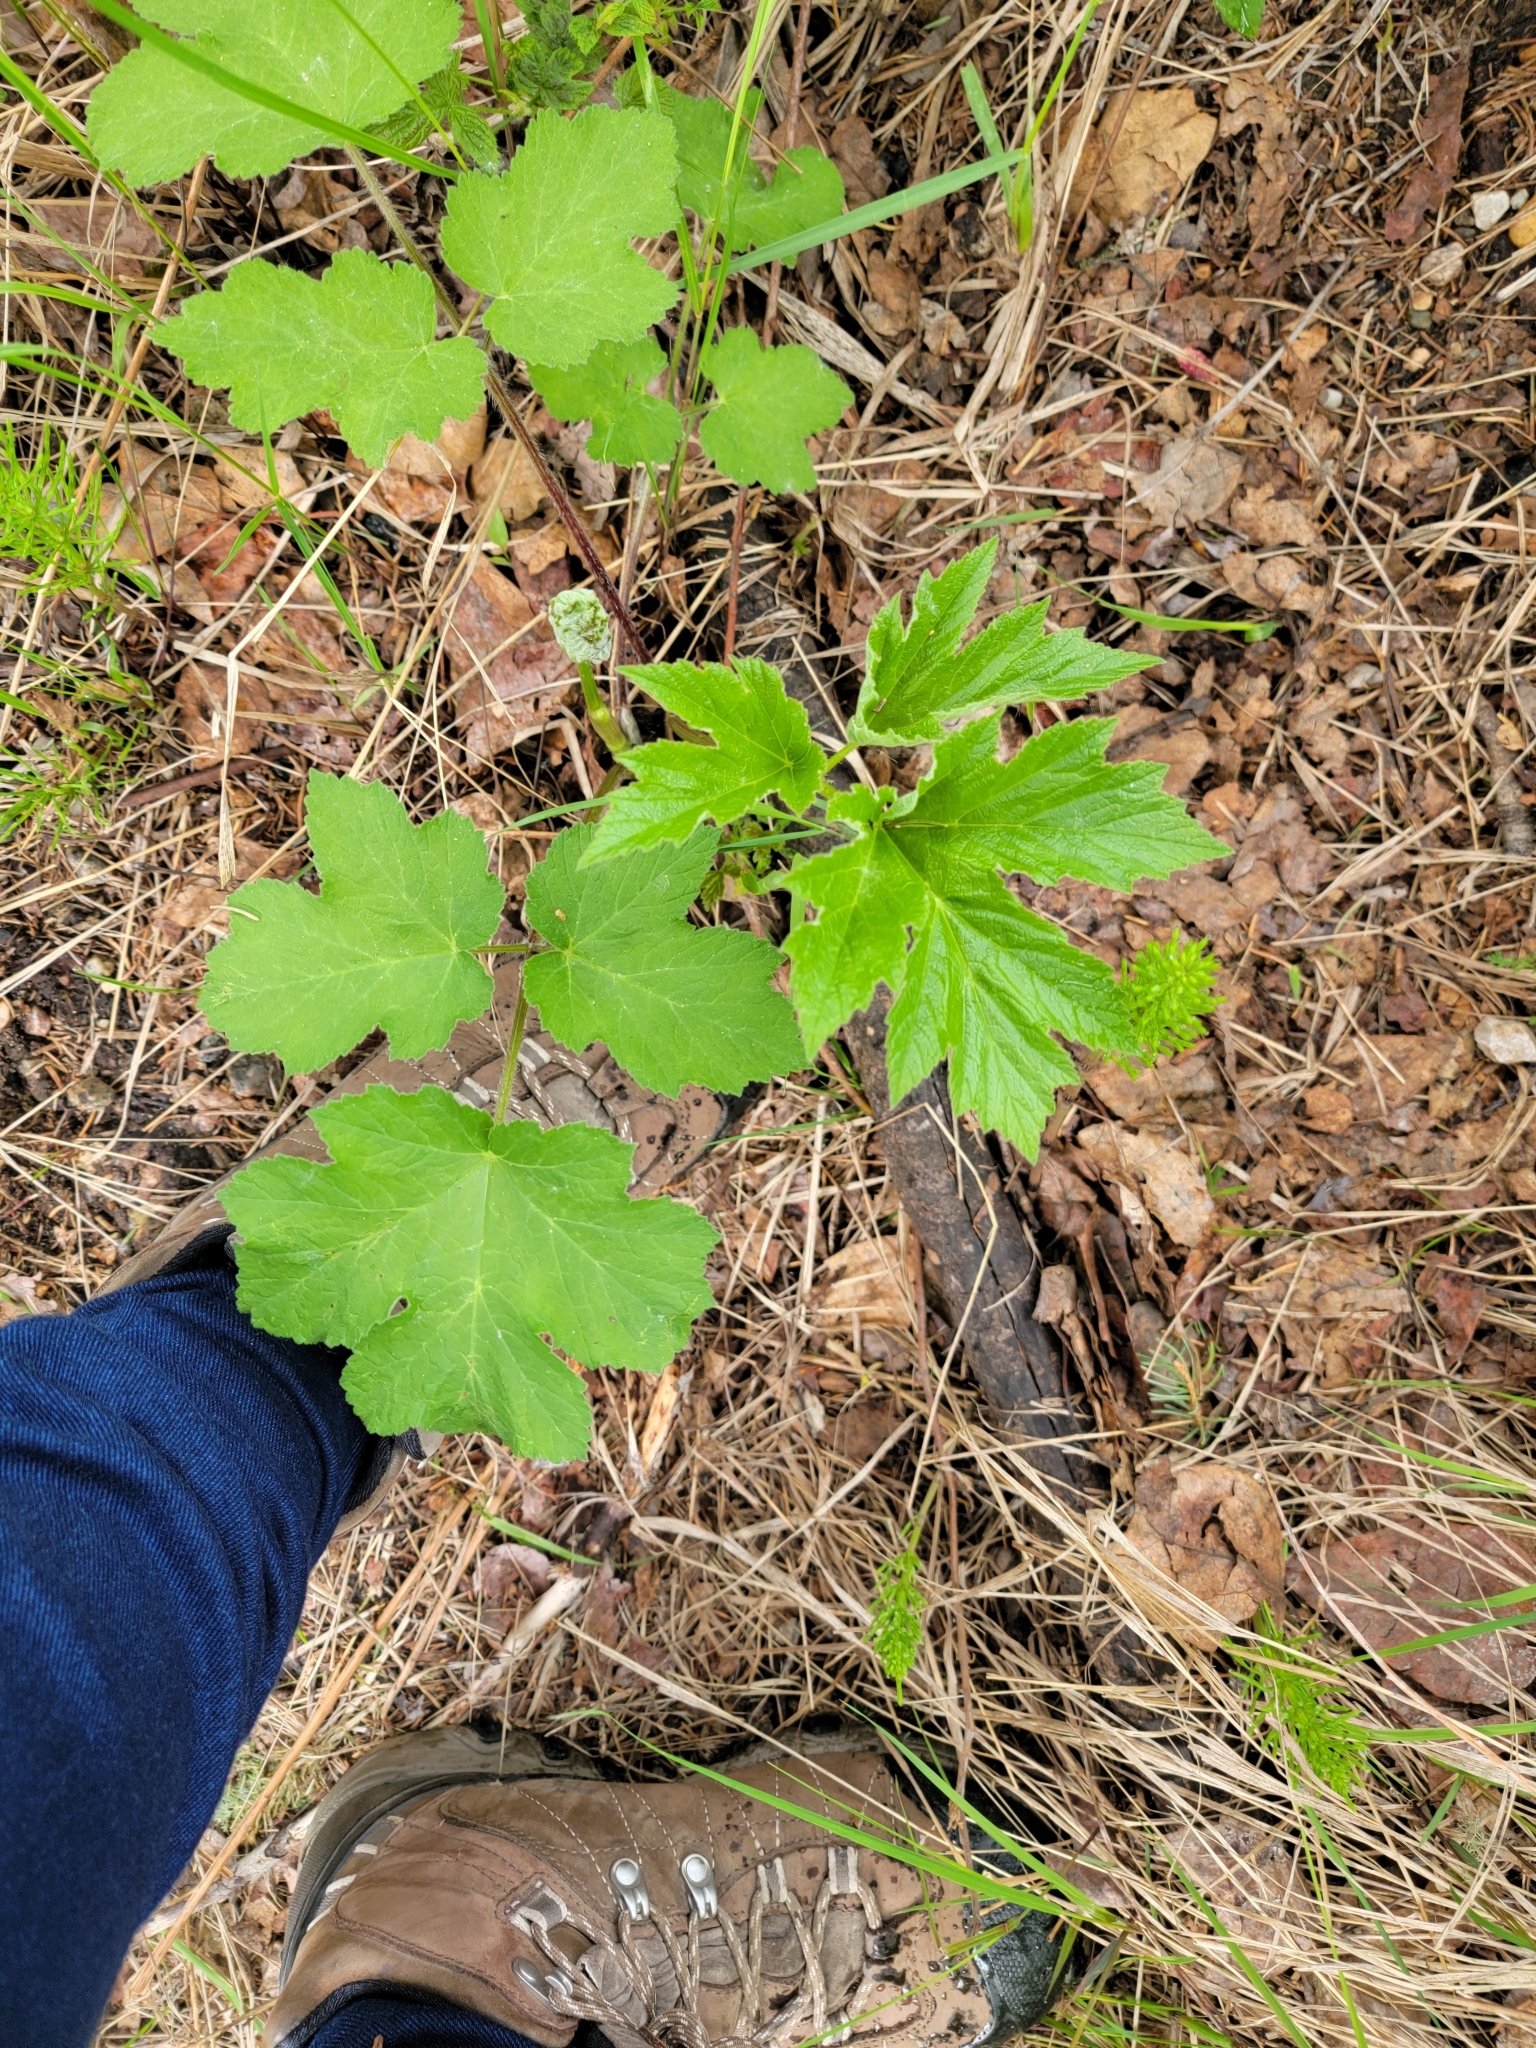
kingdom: Plantae
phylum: Tracheophyta
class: Magnoliopsida
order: Apiales
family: Apiaceae
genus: Heracleum
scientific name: Heracleum maximum
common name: American cow parsnip
